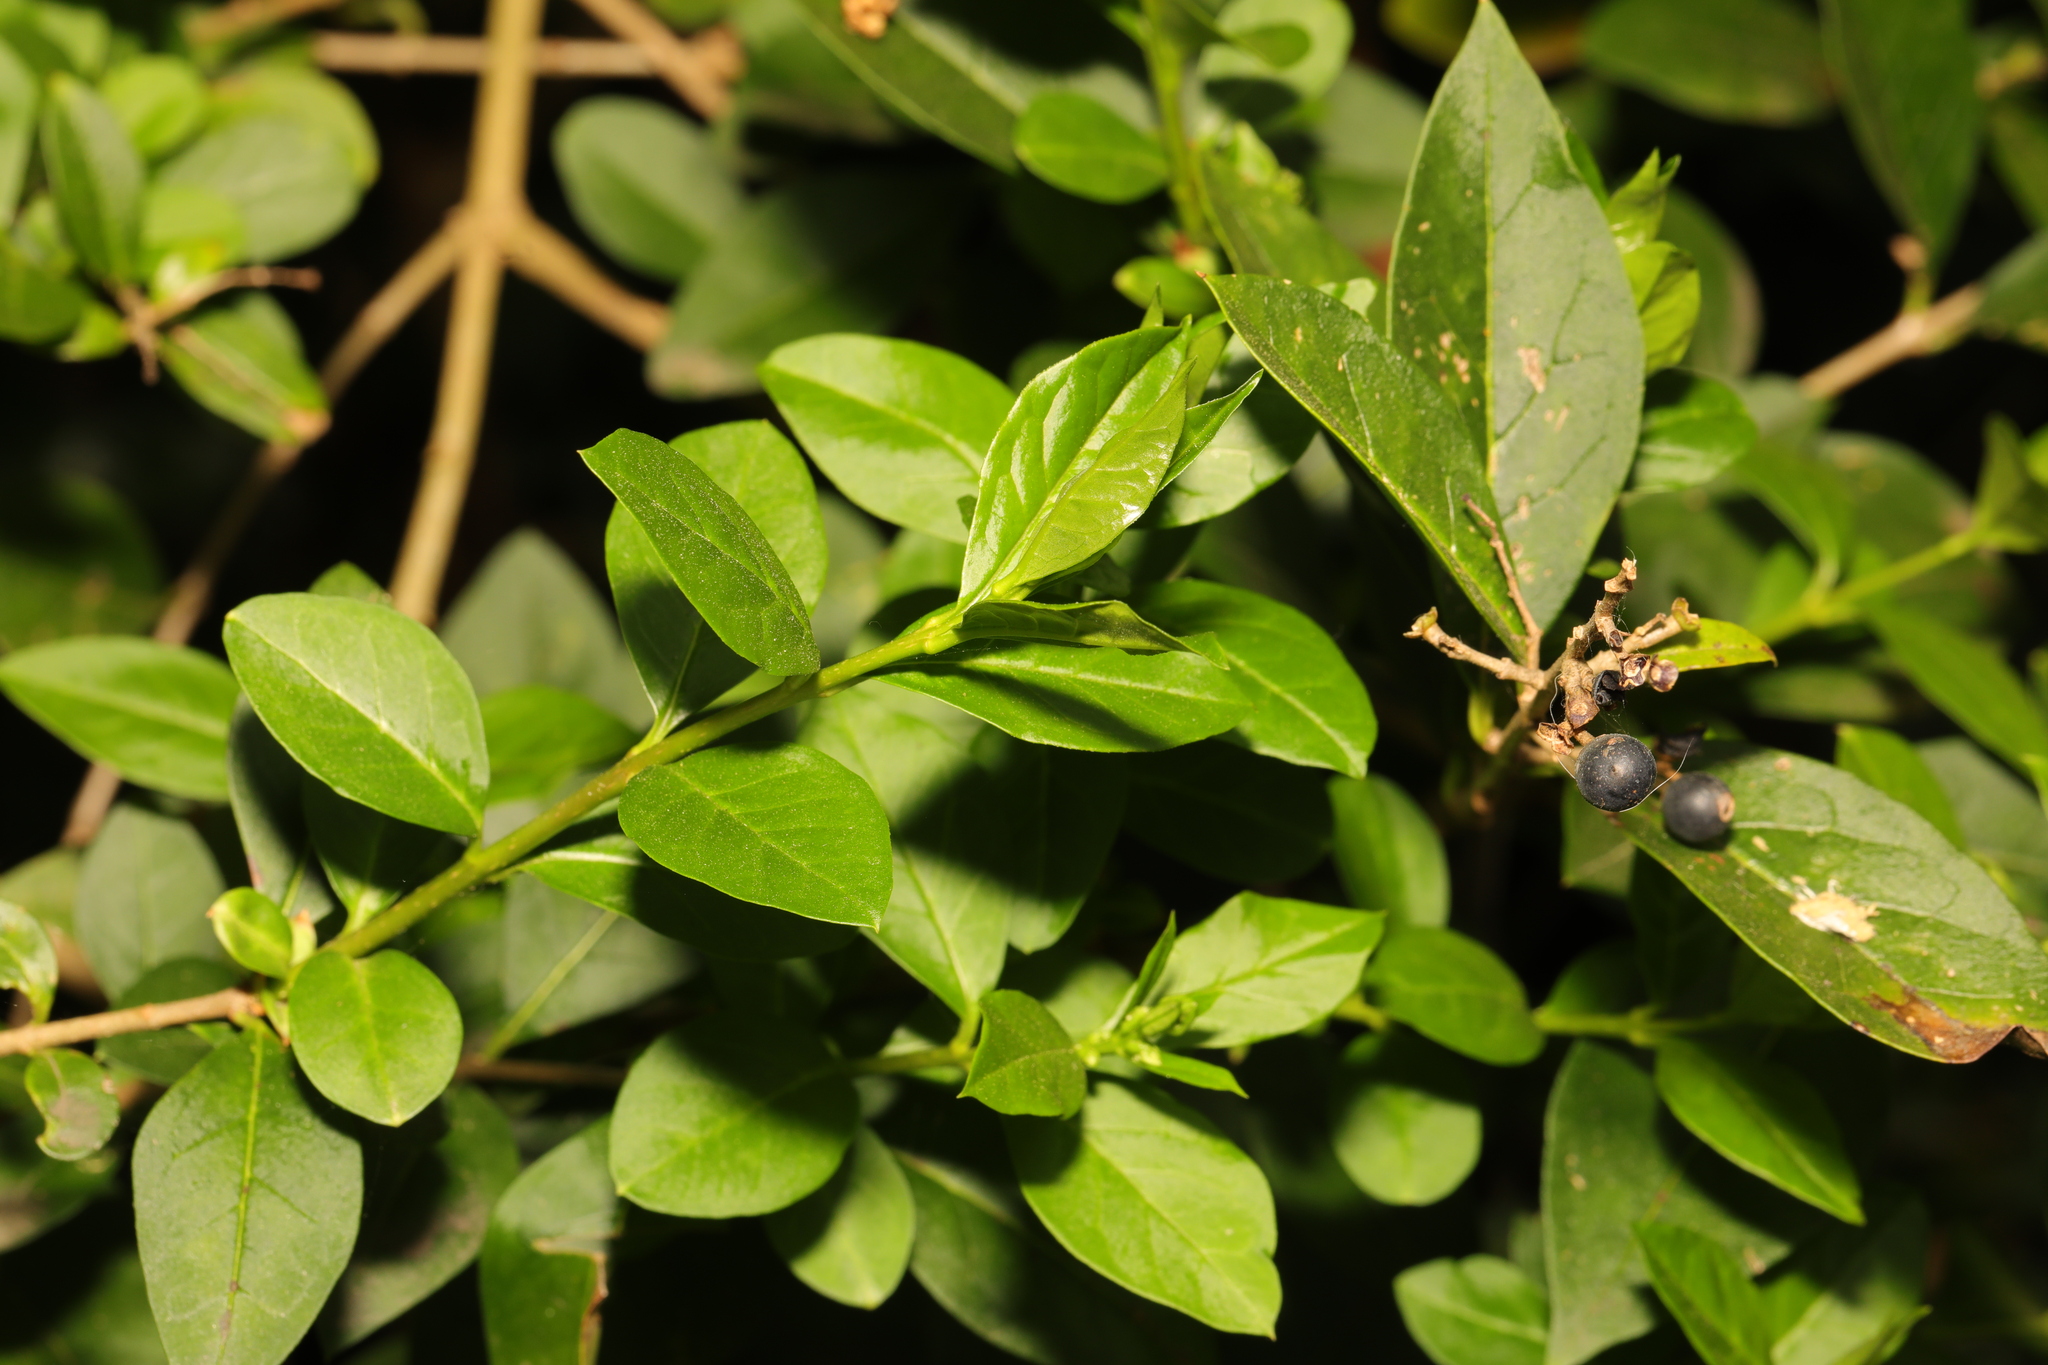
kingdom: Plantae
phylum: Tracheophyta
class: Magnoliopsida
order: Lamiales
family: Oleaceae
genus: Ligustrum
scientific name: Ligustrum ovalifolium
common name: California privet
